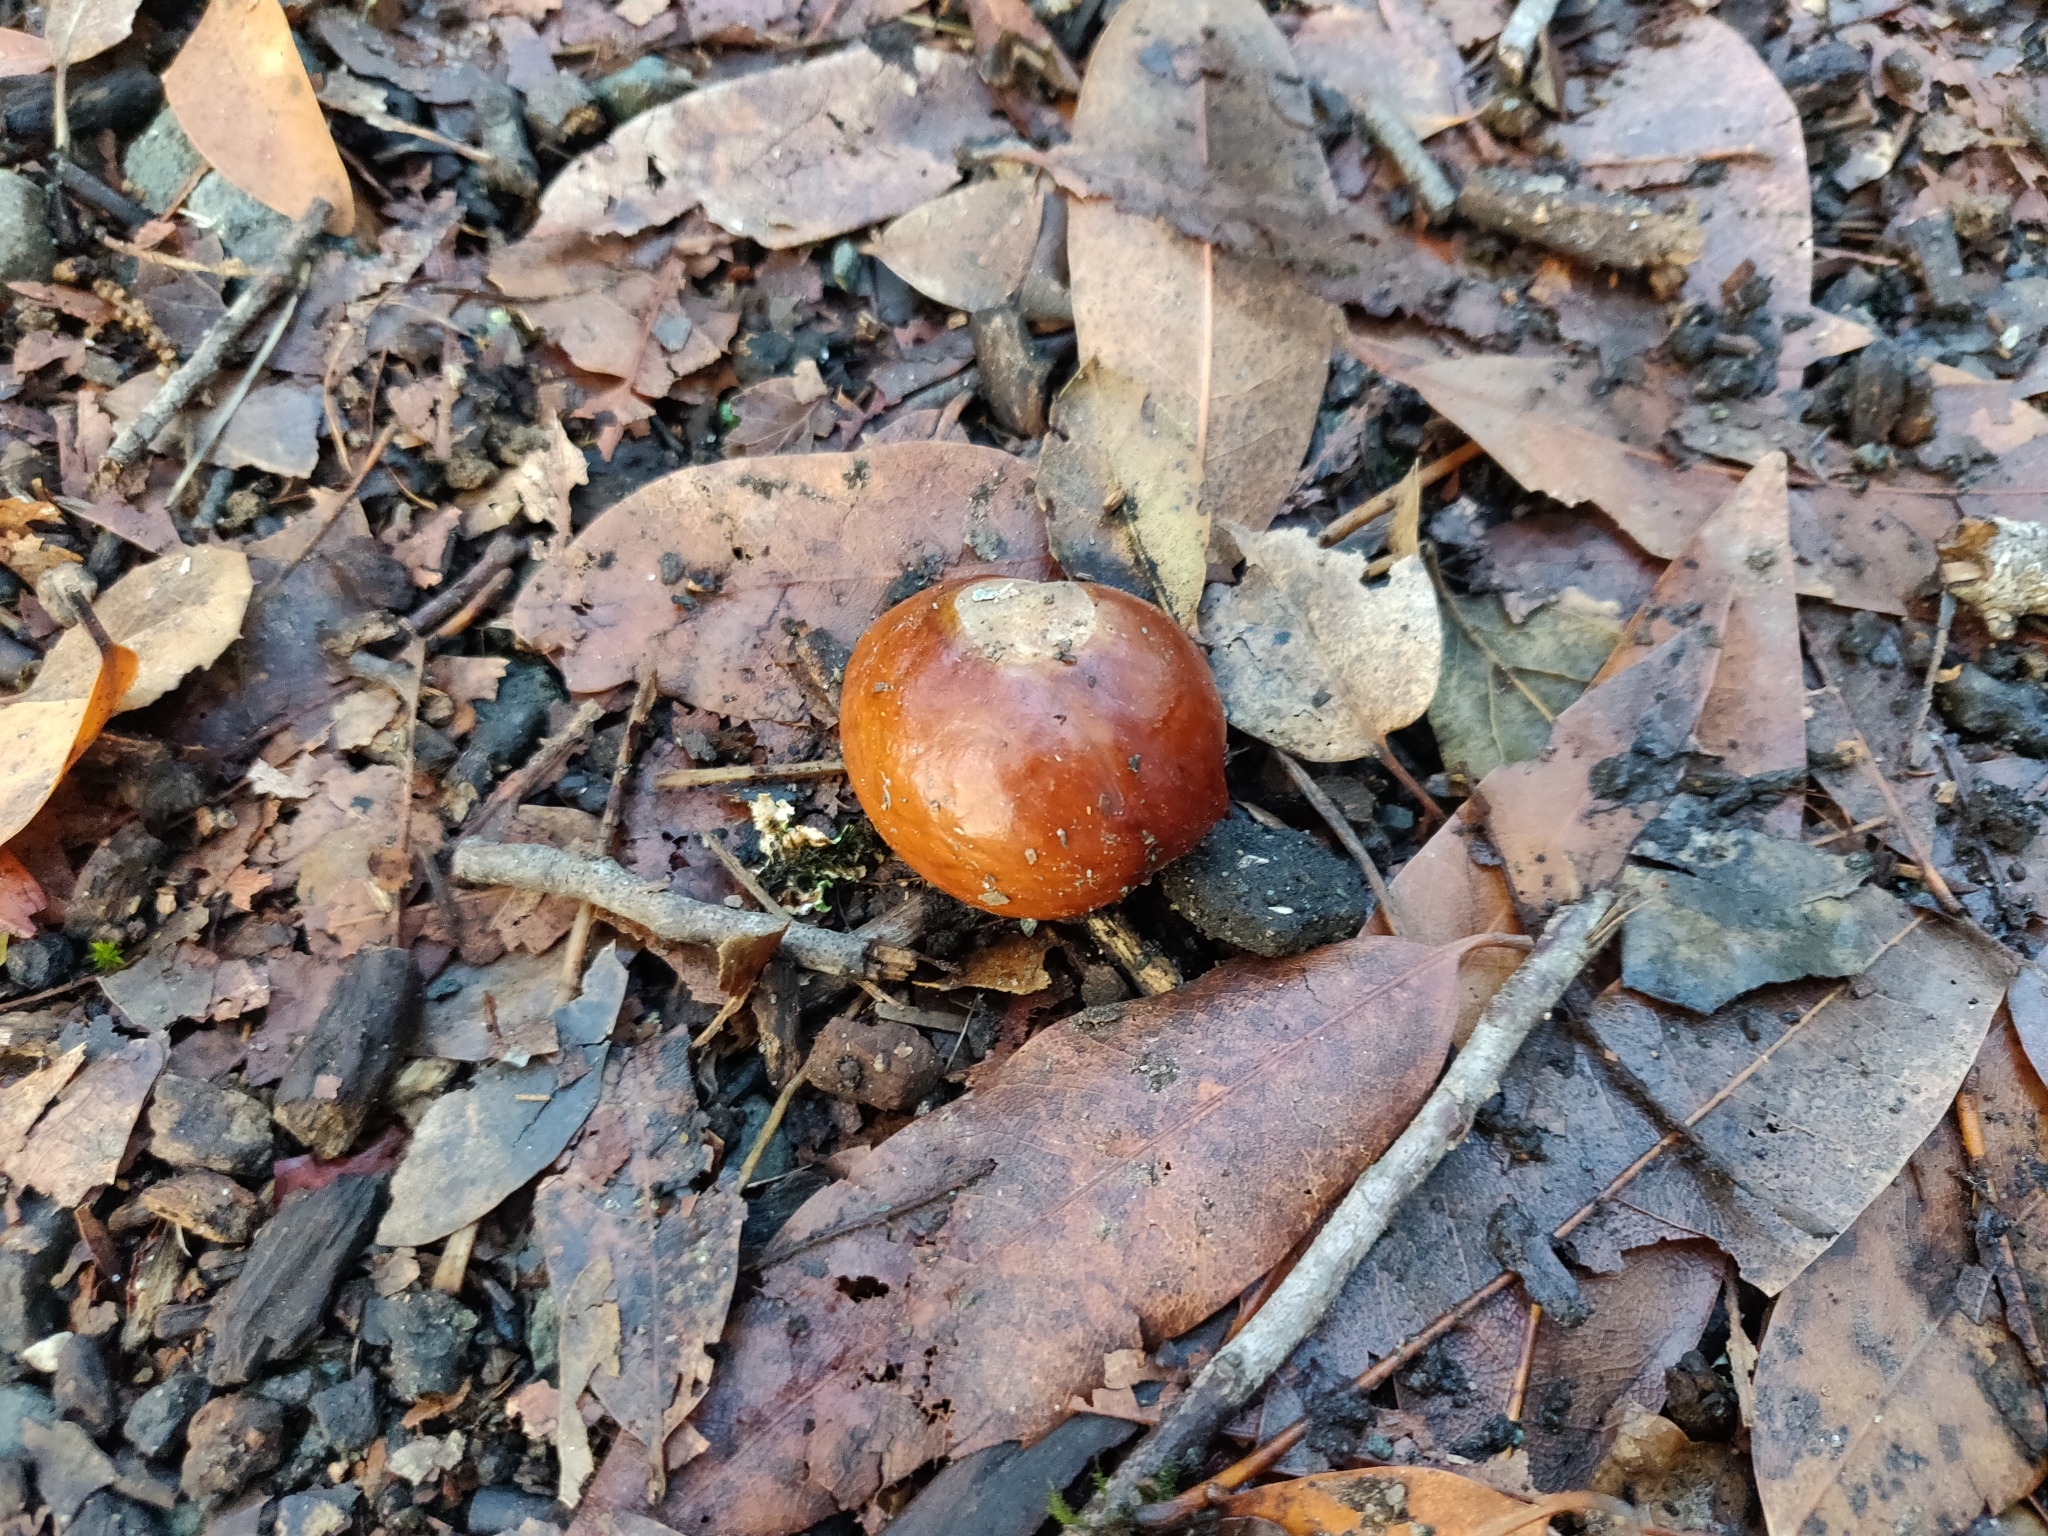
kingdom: Plantae
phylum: Tracheophyta
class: Magnoliopsida
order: Sapindales
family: Sapindaceae
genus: Aesculus
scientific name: Aesculus californica
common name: California buckeye
